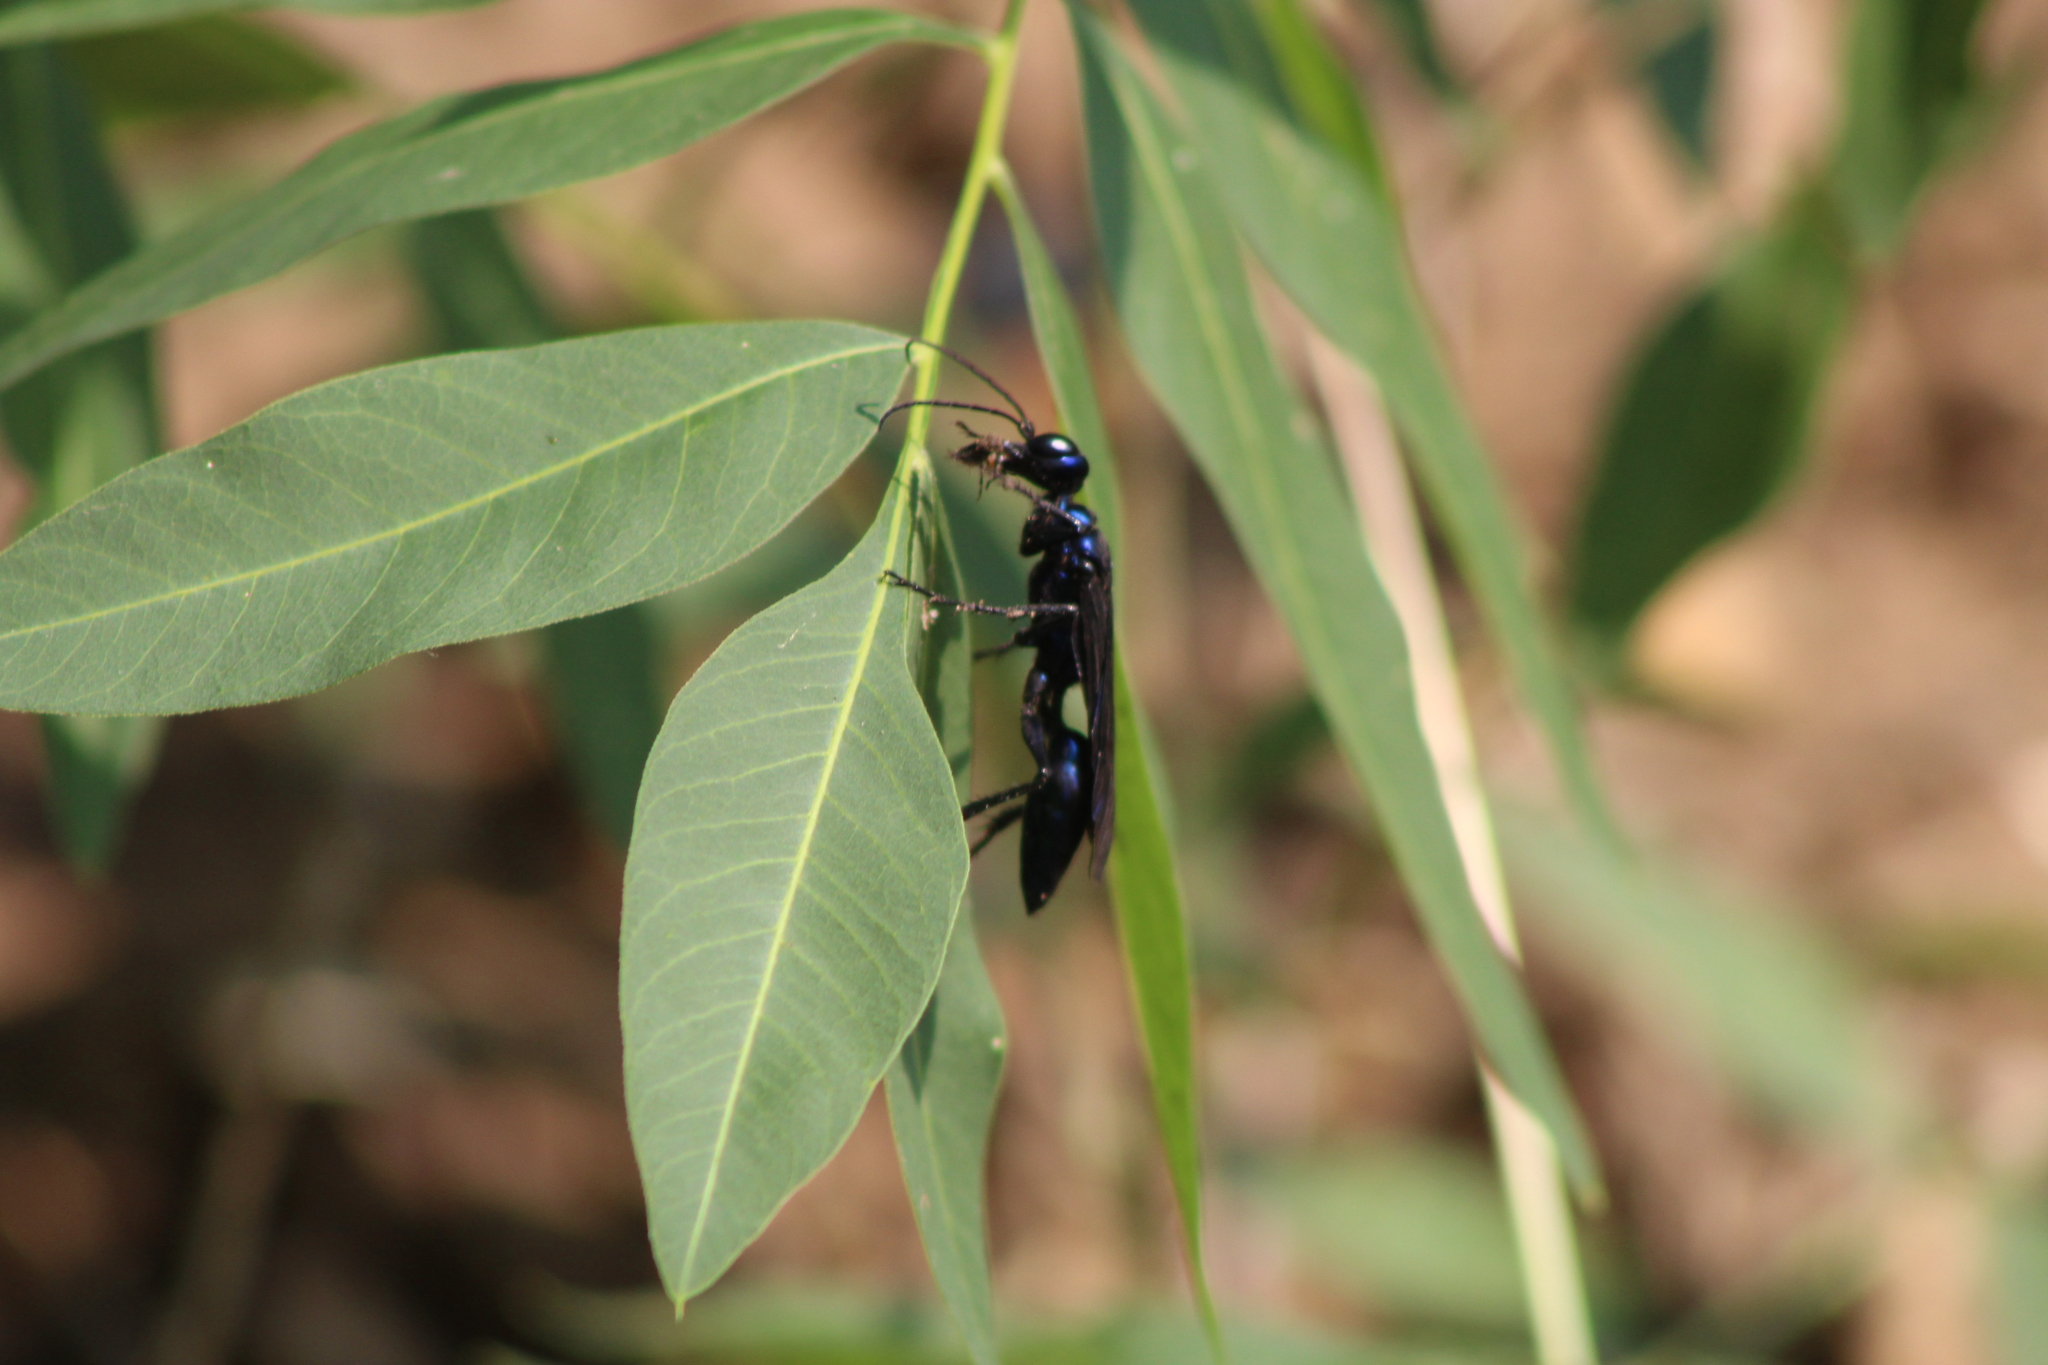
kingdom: Animalia
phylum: Arthropoda
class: Insecta
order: Hymenoptera
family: Sphecidae
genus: Chlorion
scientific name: Chlorion aerarium
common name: Steel-blue cricket hunter
